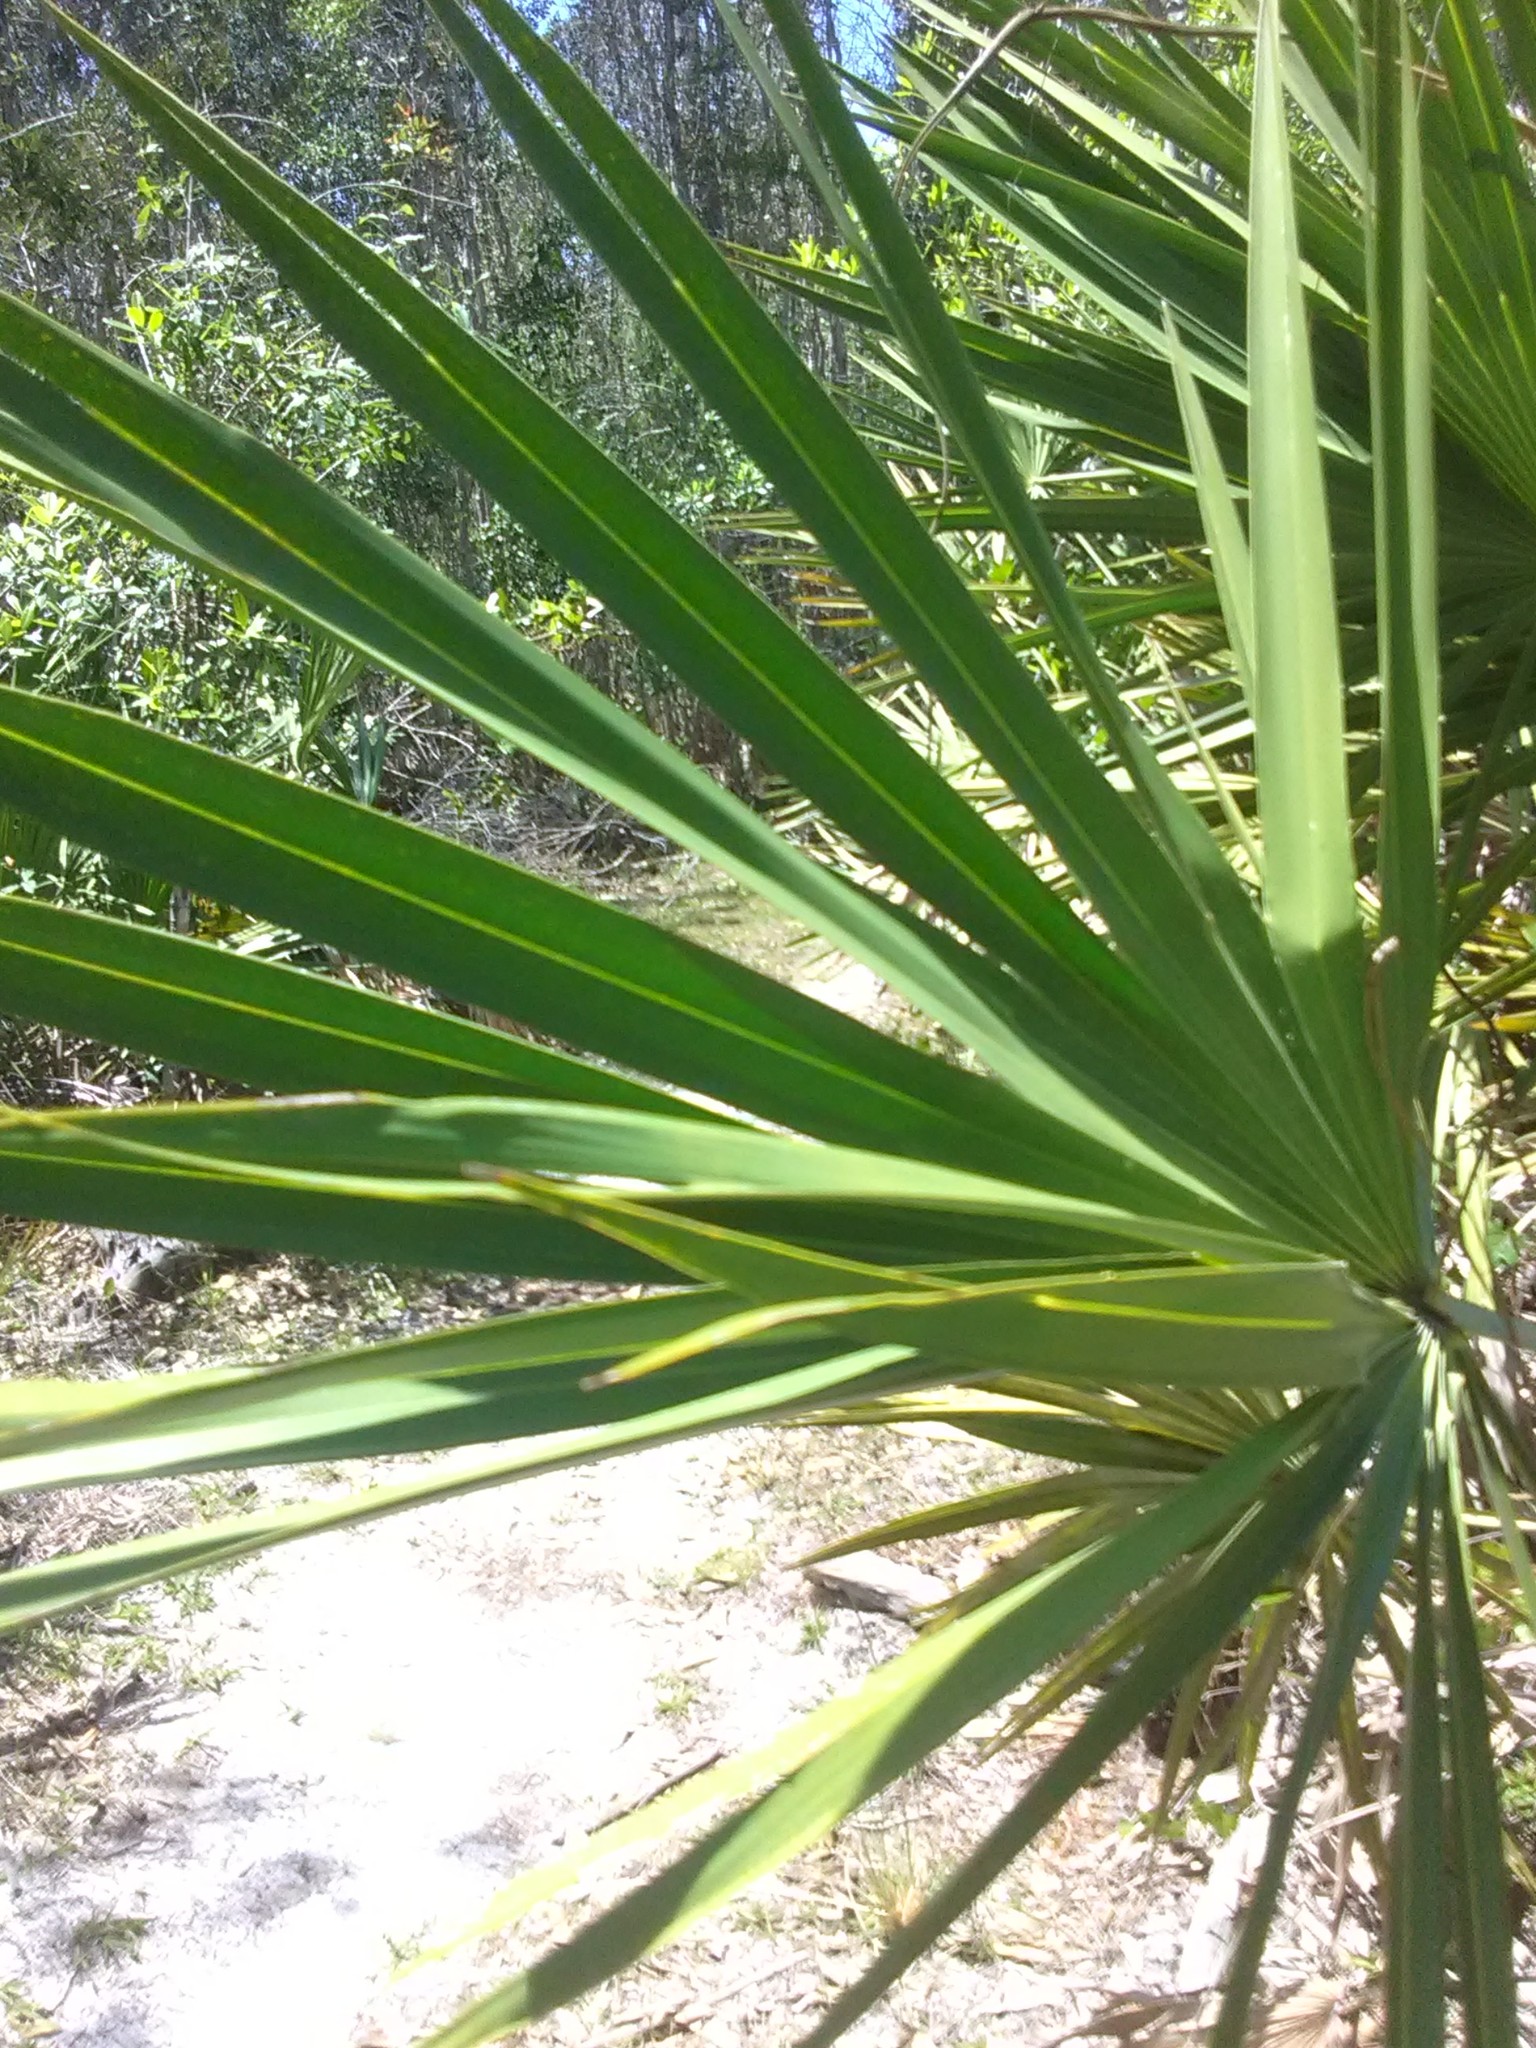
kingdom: Plantae
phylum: Tracheophyta
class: Liliopsida
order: Arecales
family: Arecaceae
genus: Serenoa
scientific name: Serenoa repens
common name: Saw-palmetto
